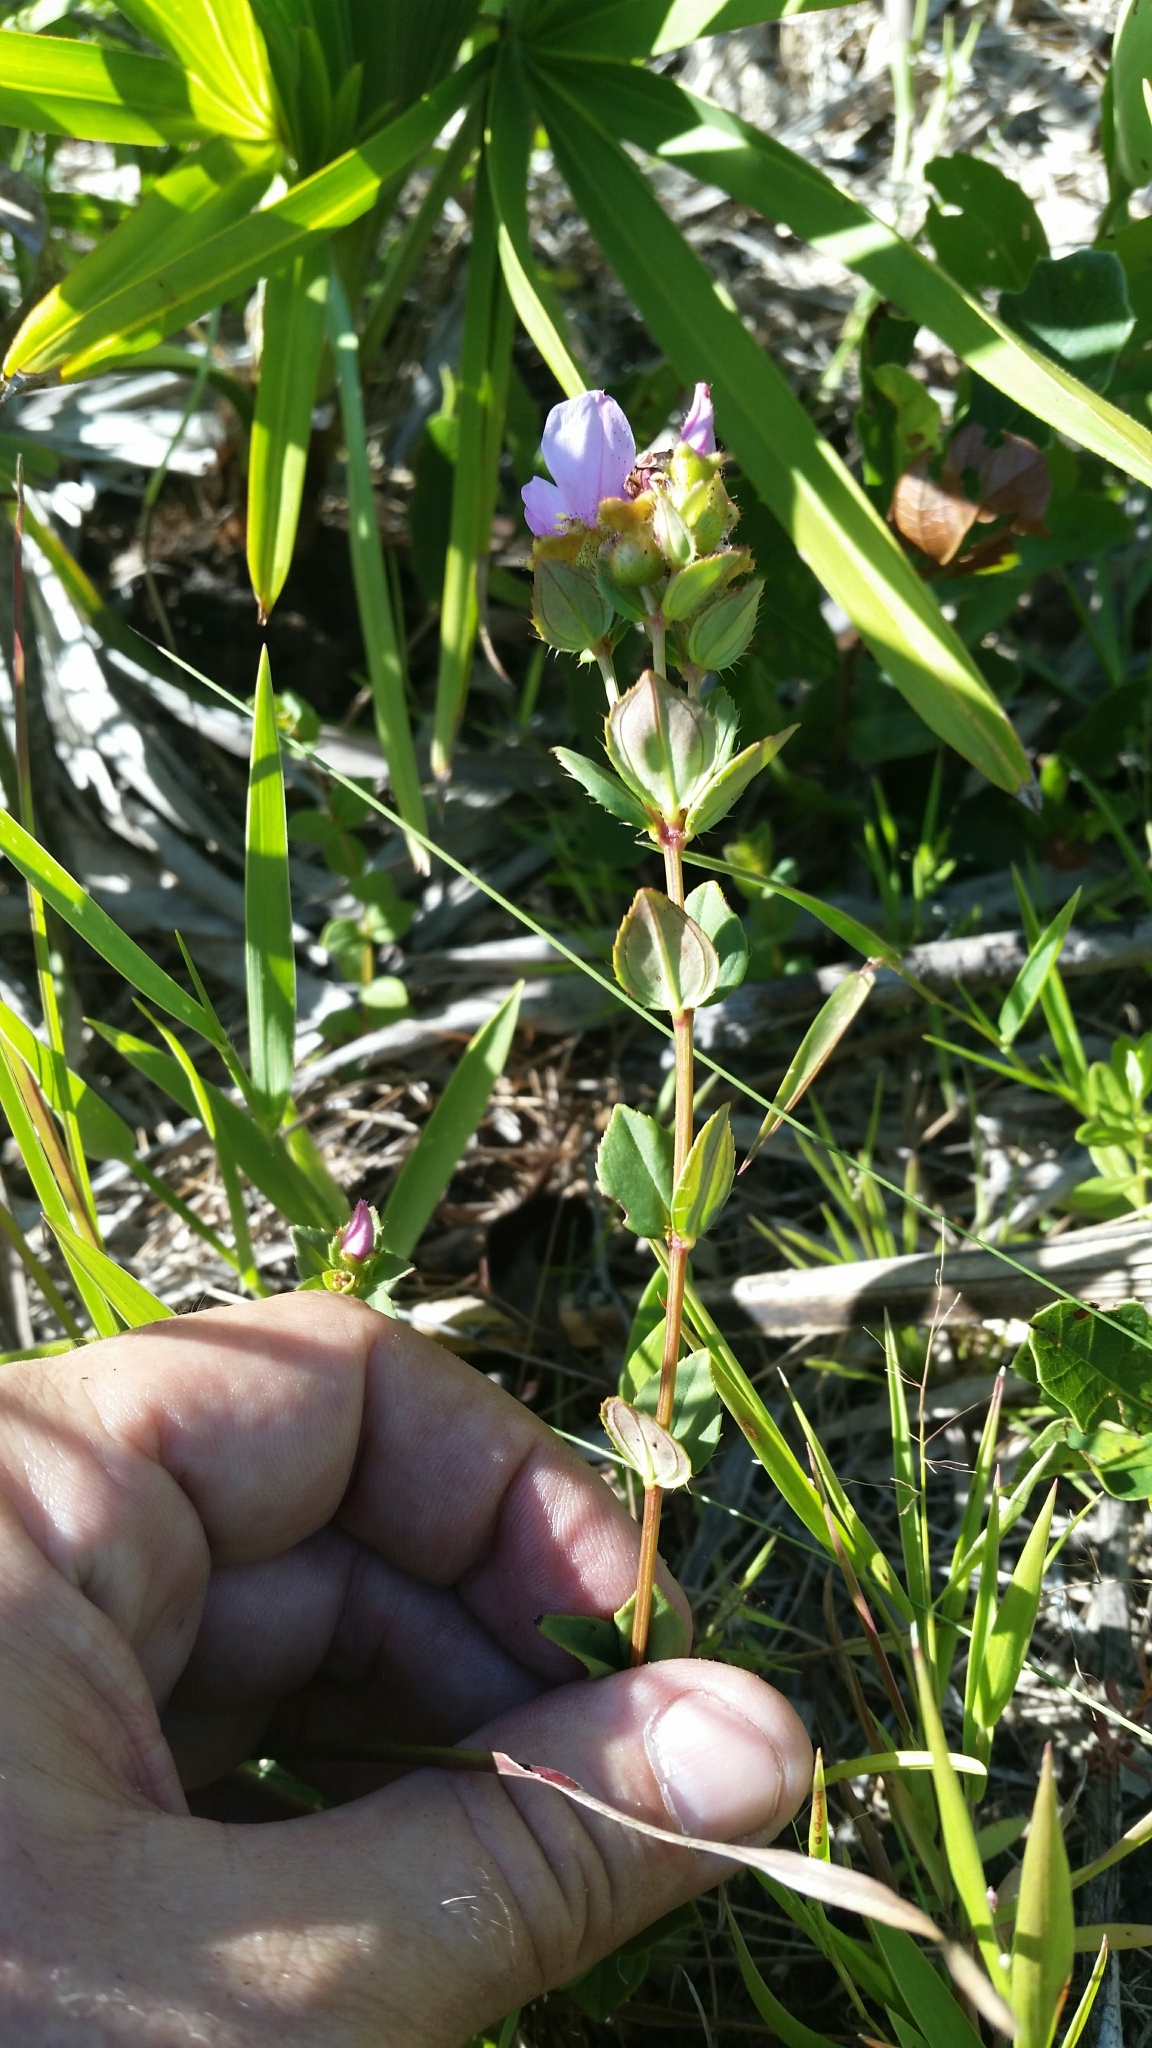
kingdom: Plantae
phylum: Tracheophyta
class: Magnoliopsida
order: Myrtales
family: Melastomataceae
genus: Rhexia
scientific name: Rhexia nuttallii
